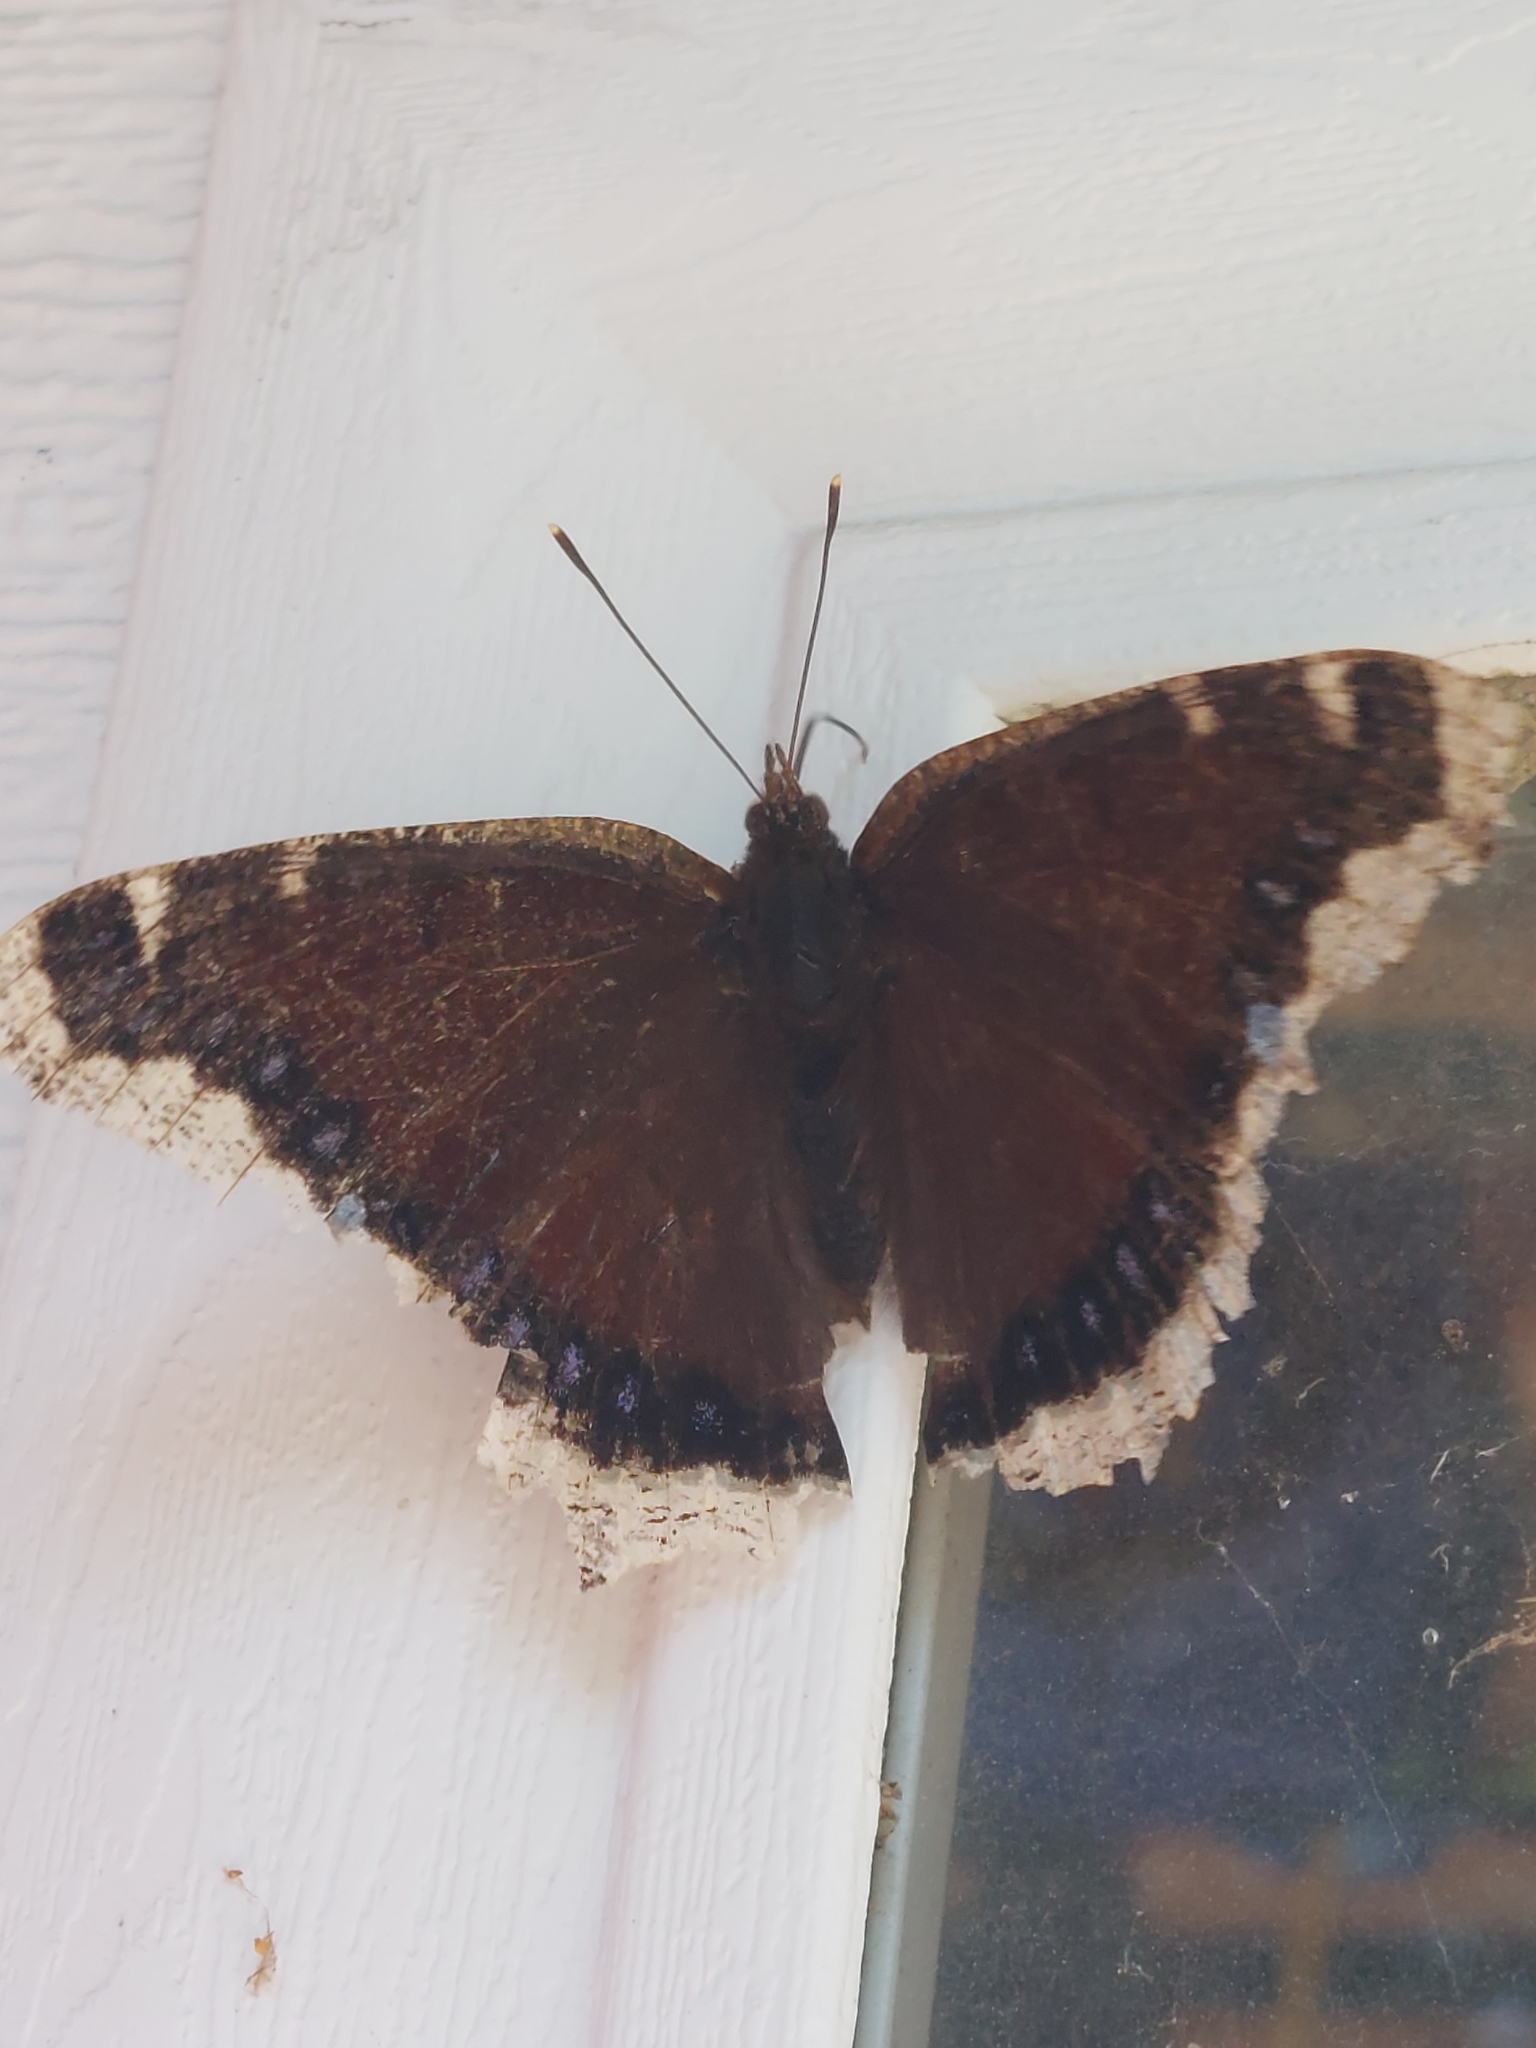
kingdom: Animalia
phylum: Arthropoda
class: Insecta
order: Lepidoptera
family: Nymphalidae
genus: Nymphalis
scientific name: Nymphalis antiopa
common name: Camberwell beauty
